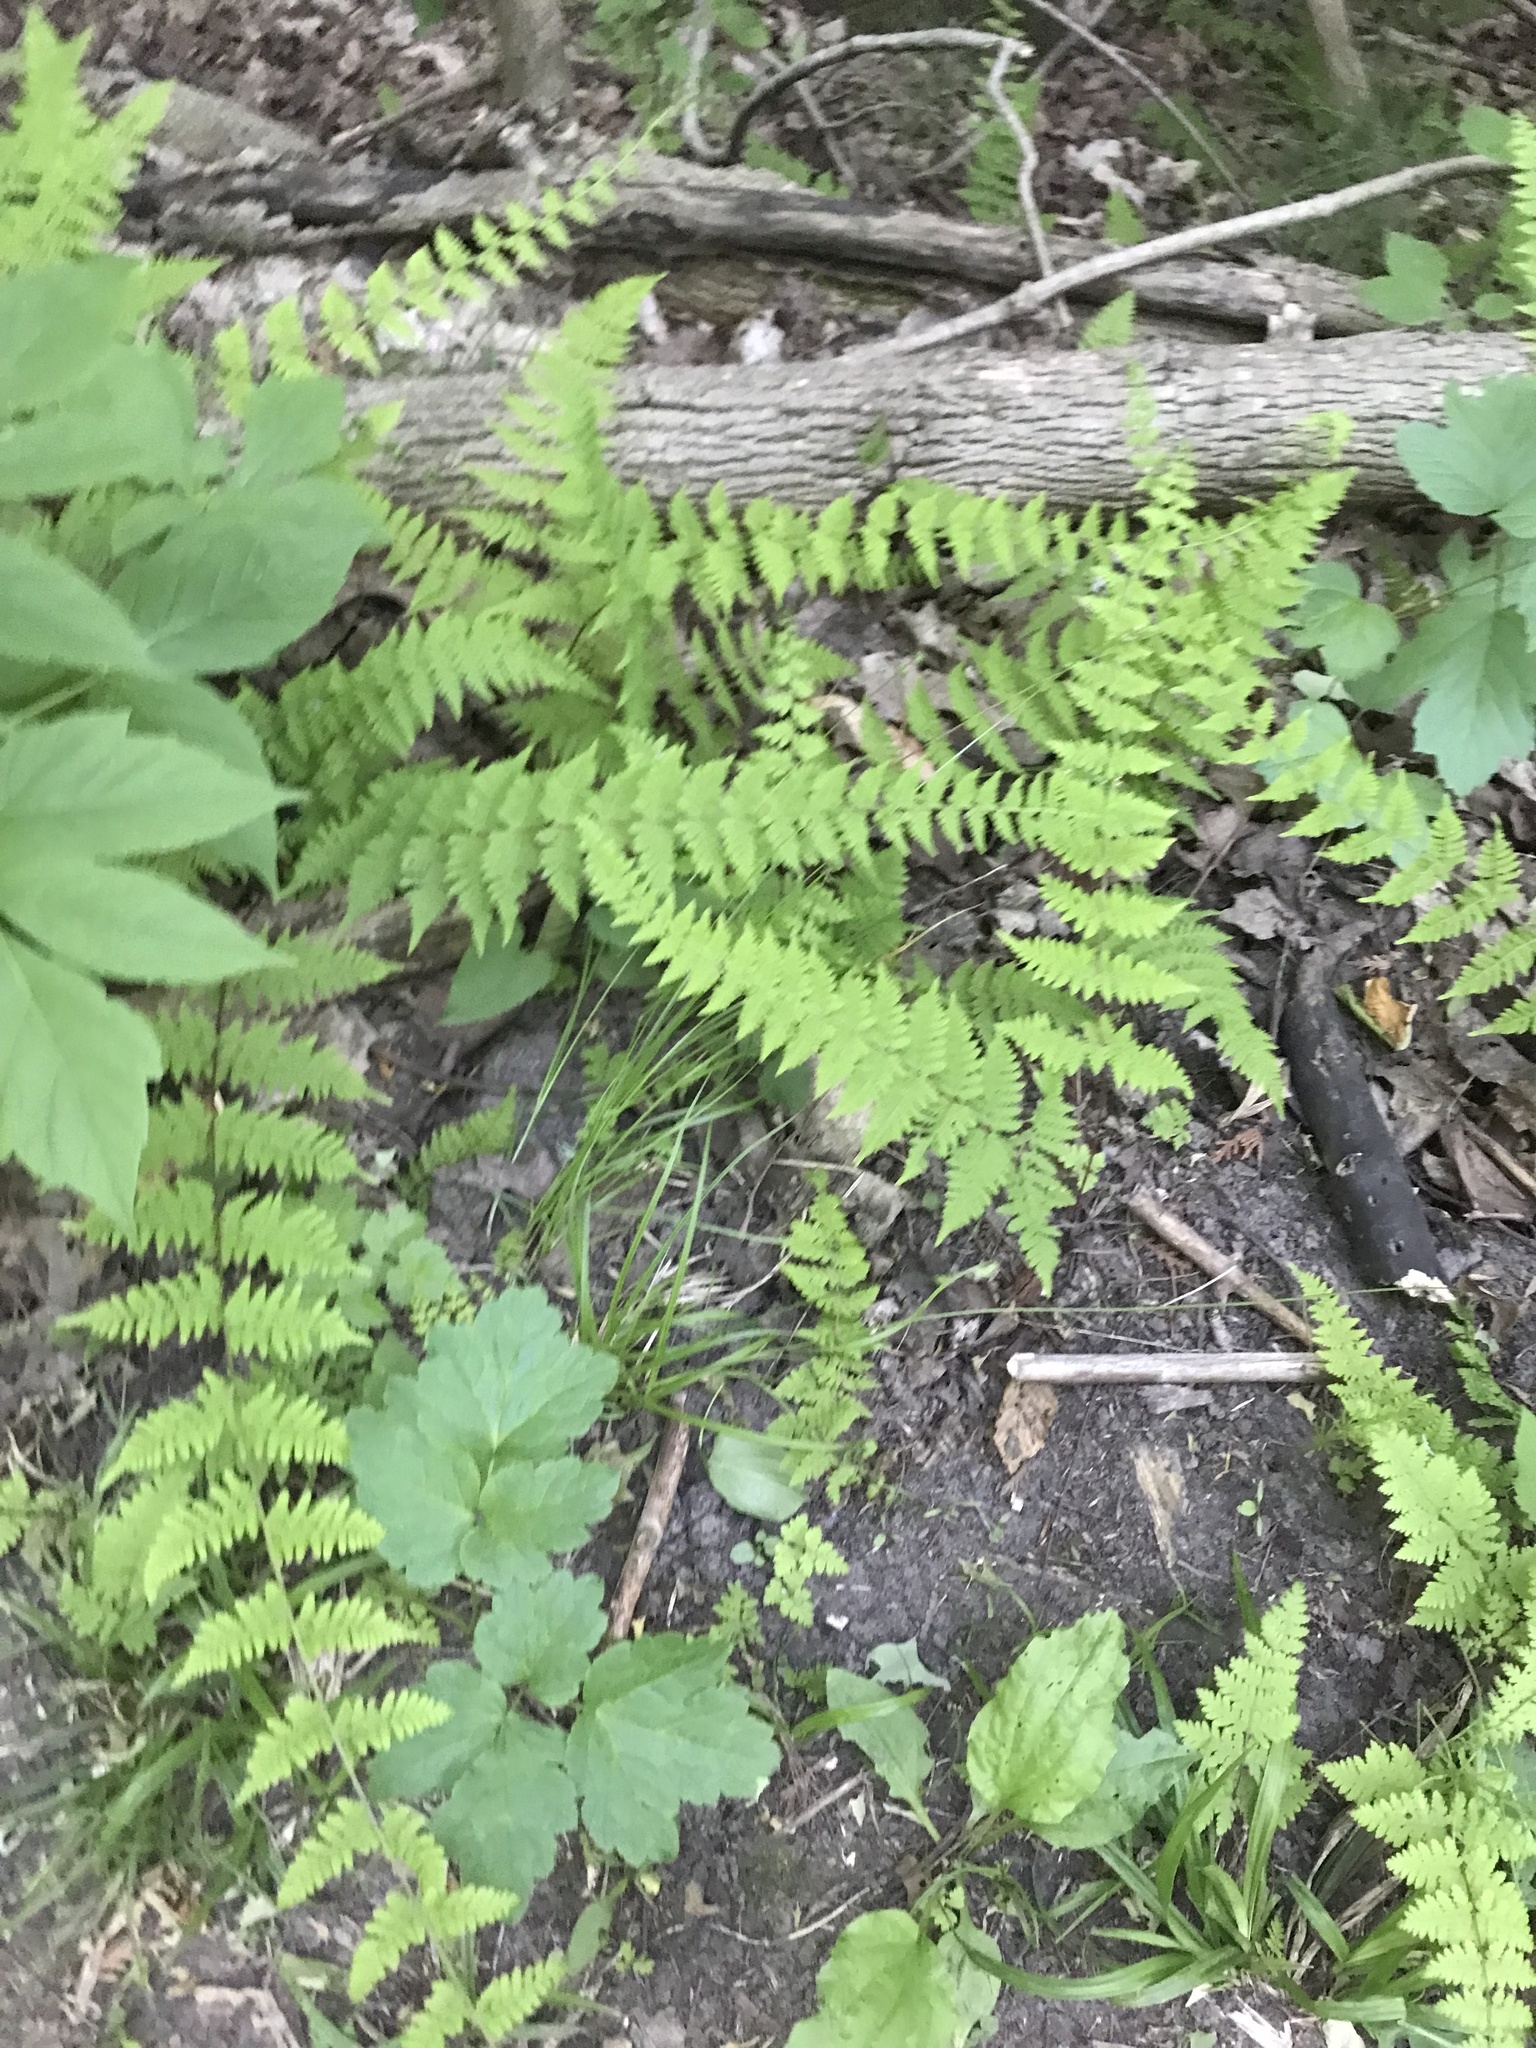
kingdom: Plantae
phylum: Tracheophyta
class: Polypodiopsida
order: Polypodiales
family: Cystopteridaceae
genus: Cystopteris
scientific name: Cystopteris bulbifera
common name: Bulblet bladder fern
